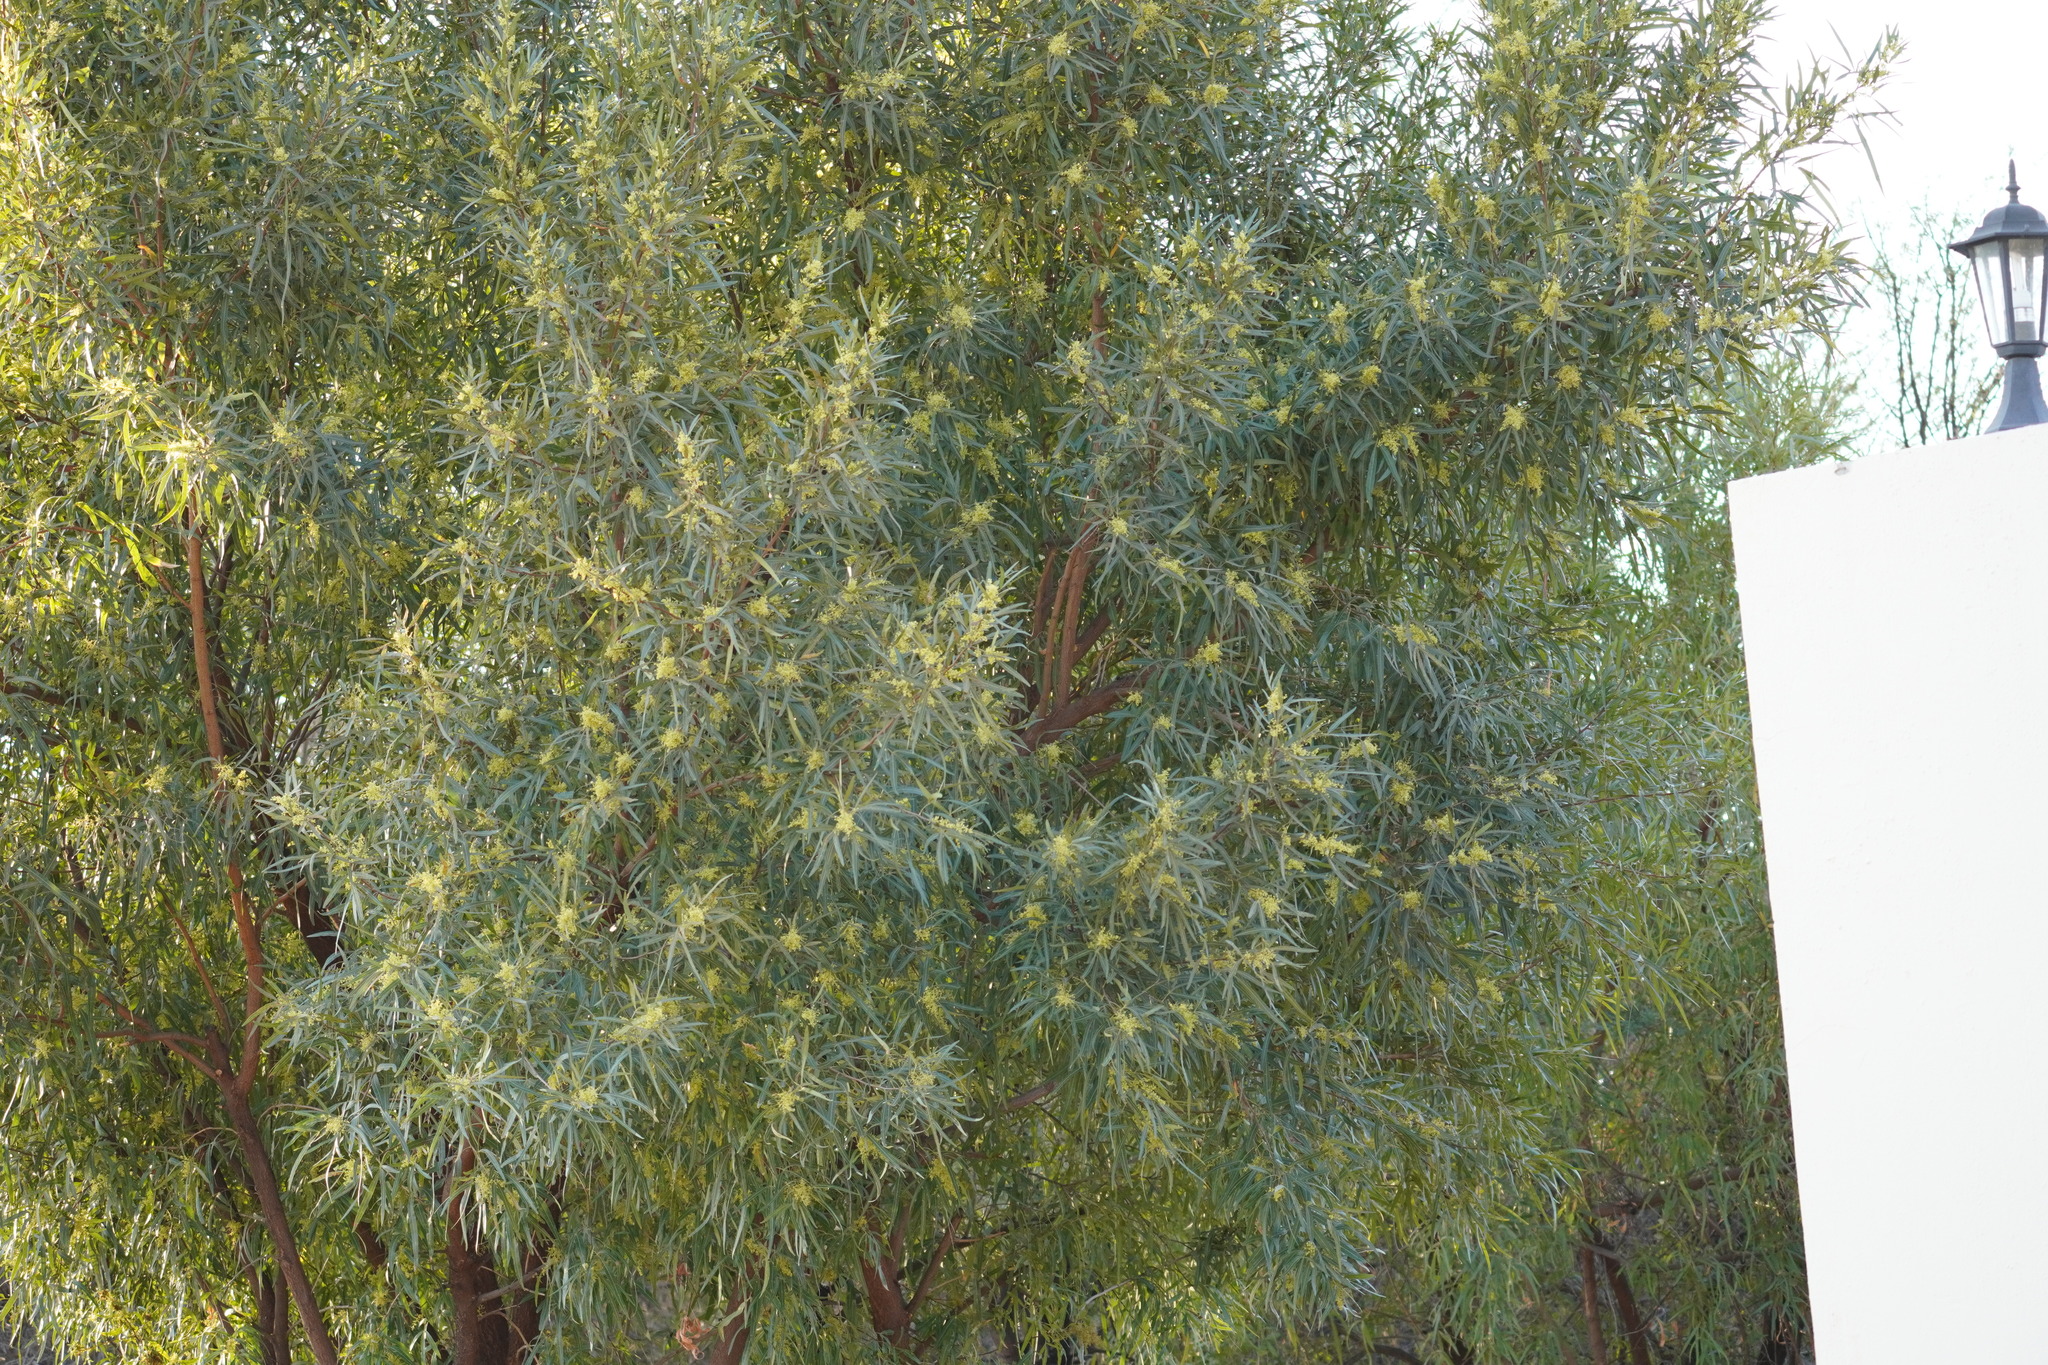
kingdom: Plantae
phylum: Tracheophyta
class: Magnoliopsida
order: Sapindales
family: Anacardiaceae
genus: Searsia
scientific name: Searsia lancea
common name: Cashew
